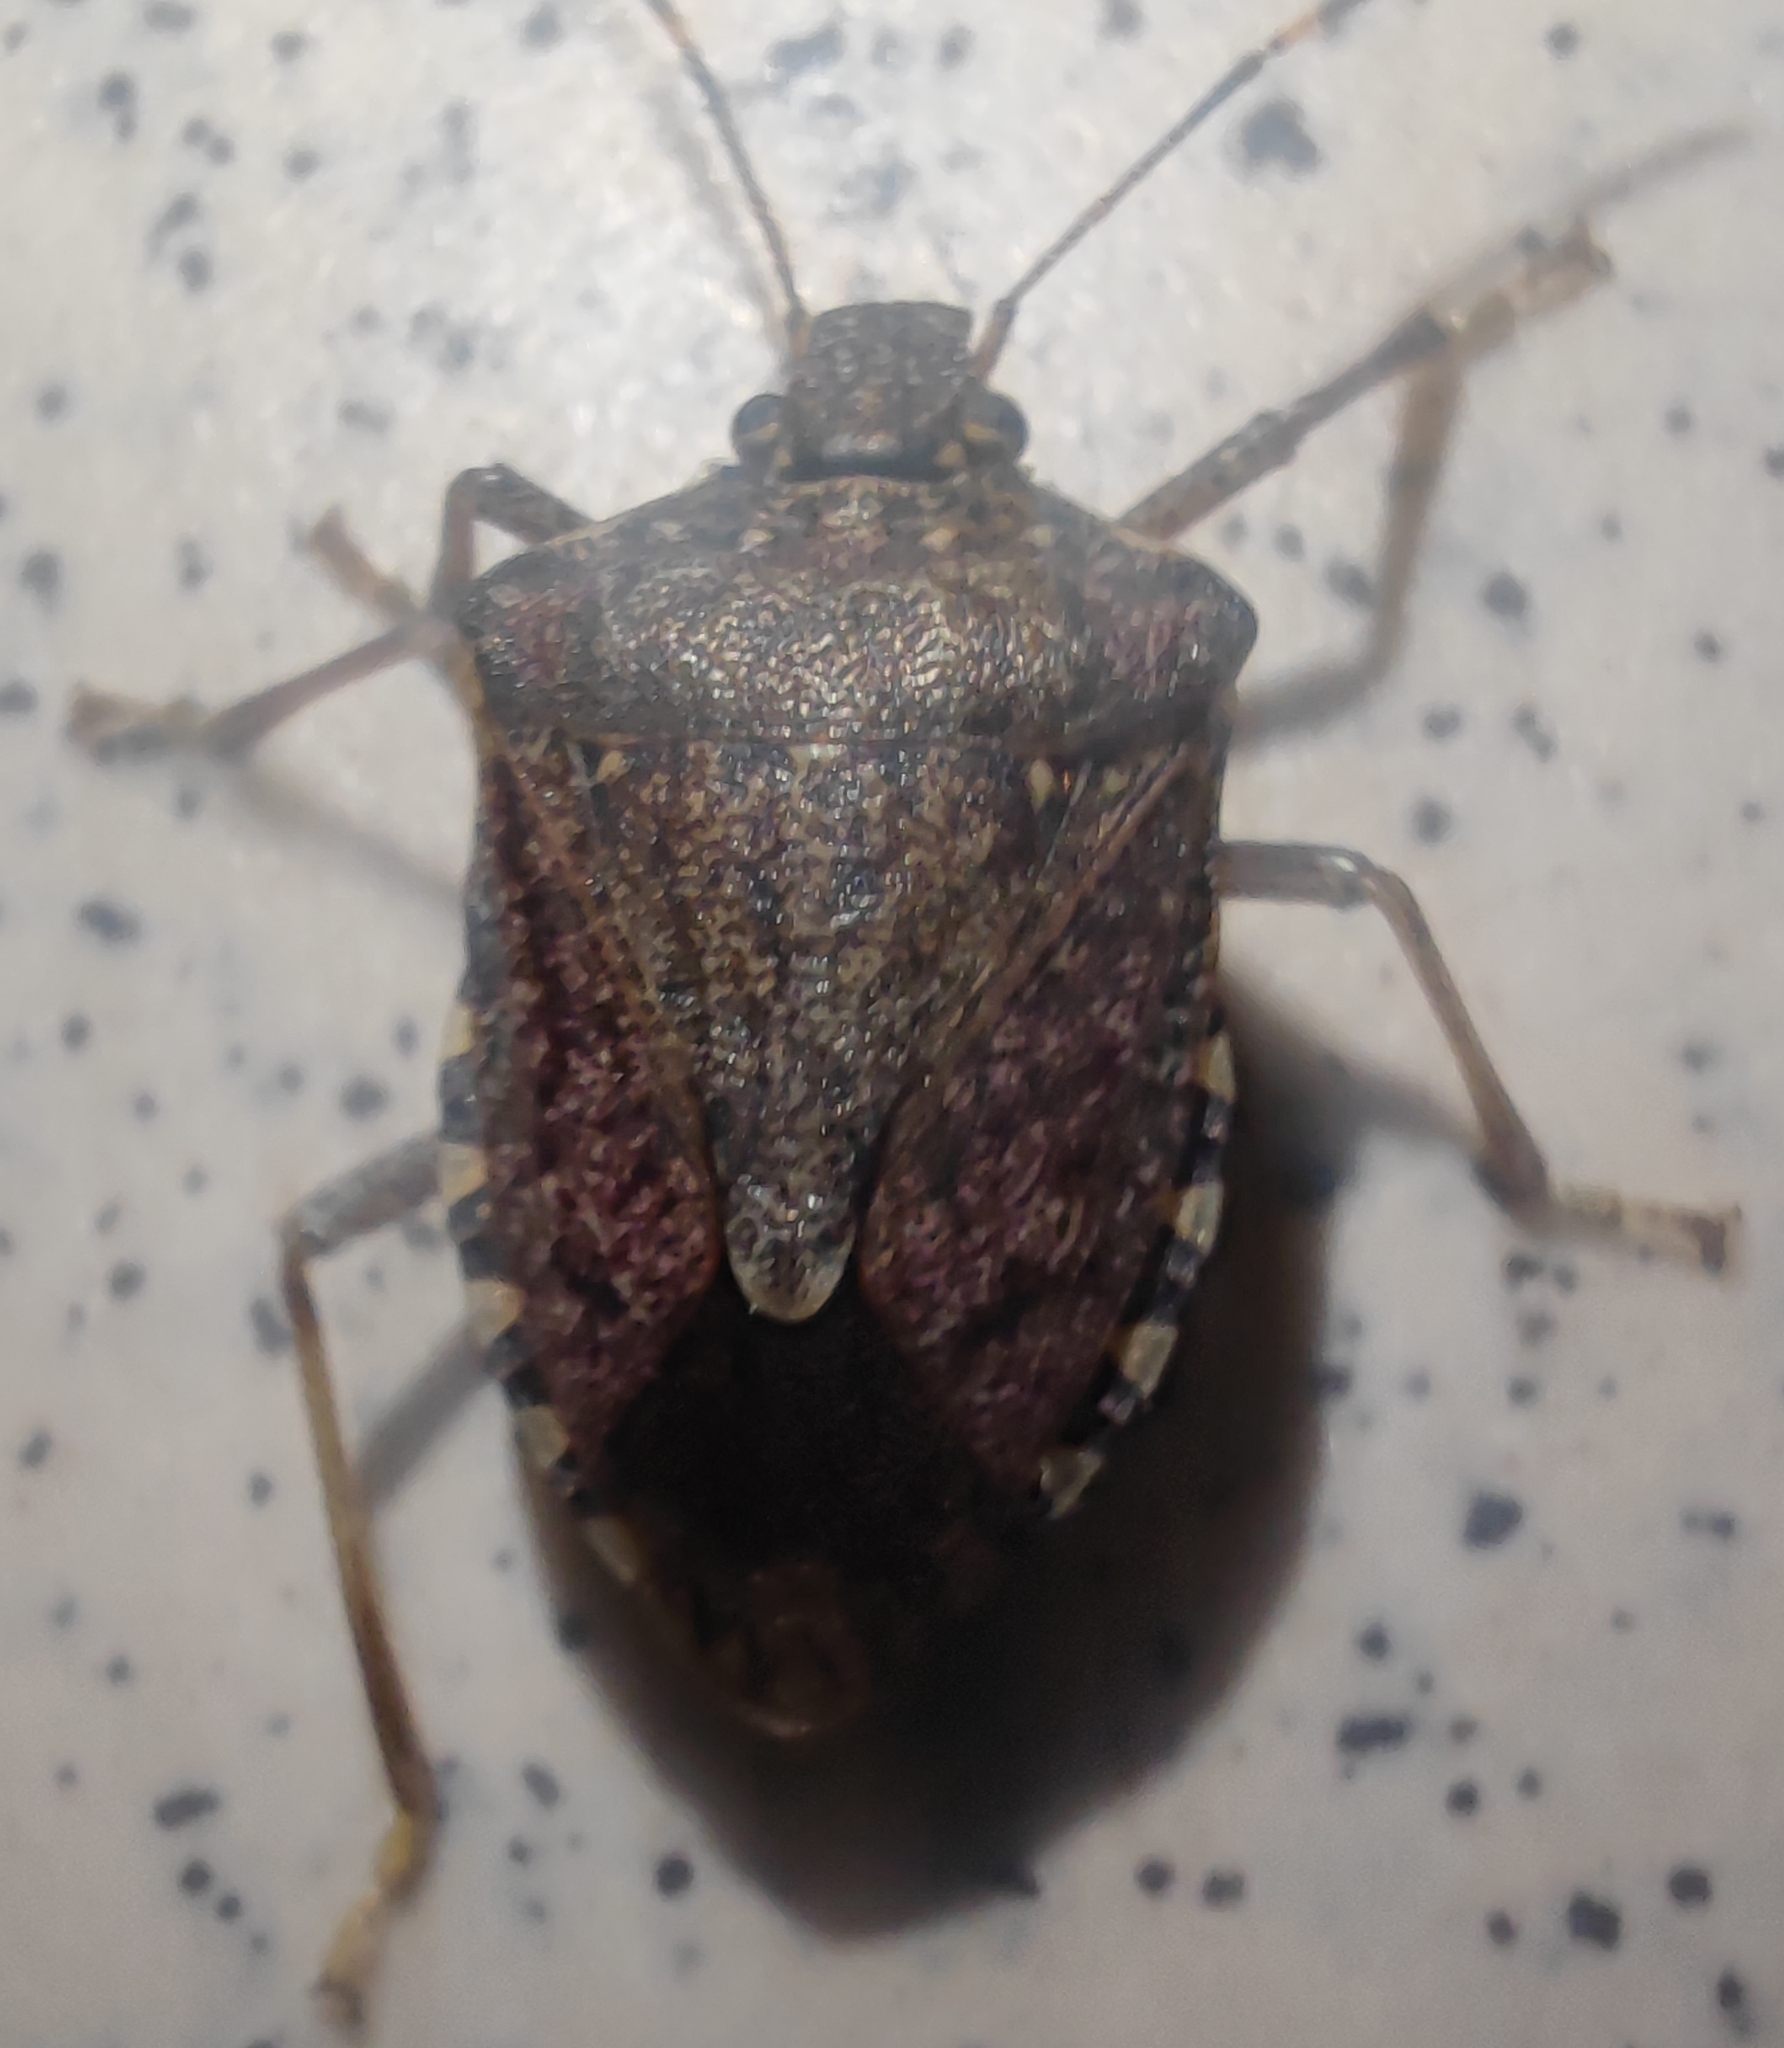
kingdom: Animalia
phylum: Arthropoda
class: Insecta
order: Hemiptera
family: Pentatomidae
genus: Halyomorpha
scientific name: Halyomorpha halys
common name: Brown marmorated stink bug
